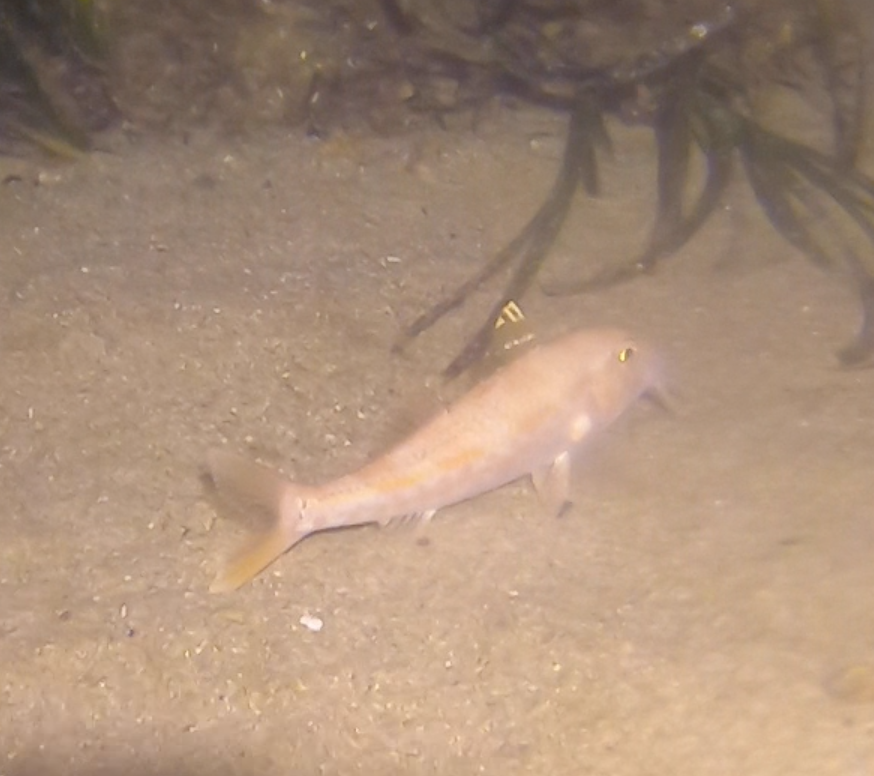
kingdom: Animalia
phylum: Chordata
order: Perciformes
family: Mullidae
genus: Mullus
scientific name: Mullus surmuletus
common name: Red mullet
